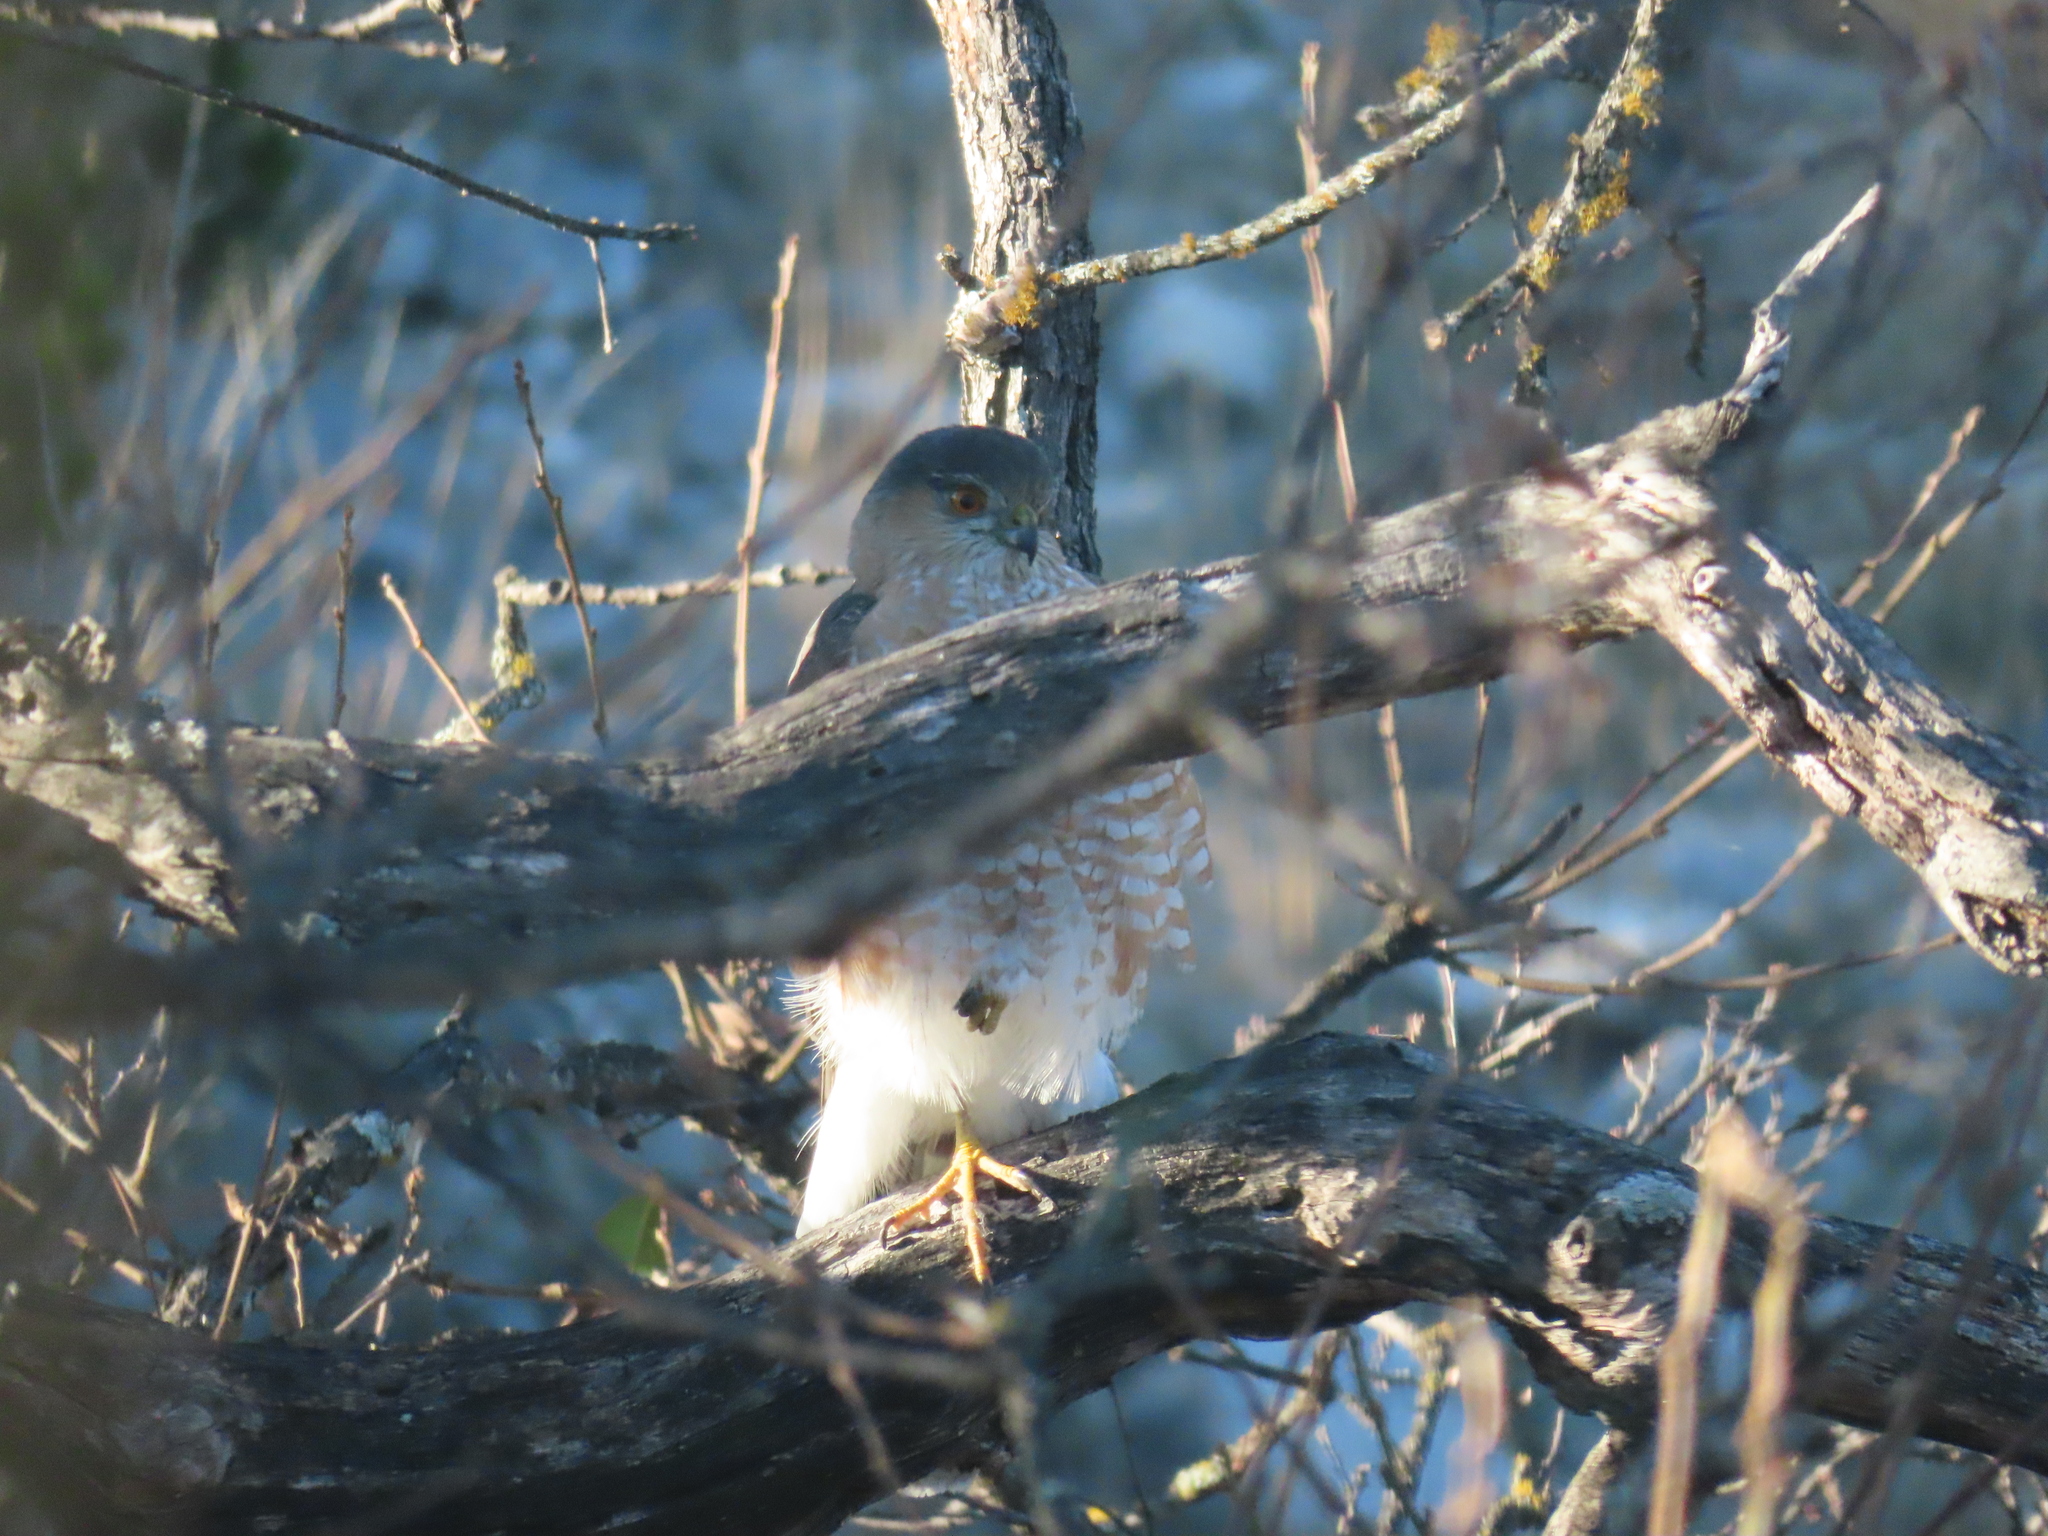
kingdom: Animalia
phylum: Chordata
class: Aves
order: Accipitriformes
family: Accipitridae
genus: Accipiter
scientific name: Accipiter striatus
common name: Sharp-shinned hawk
